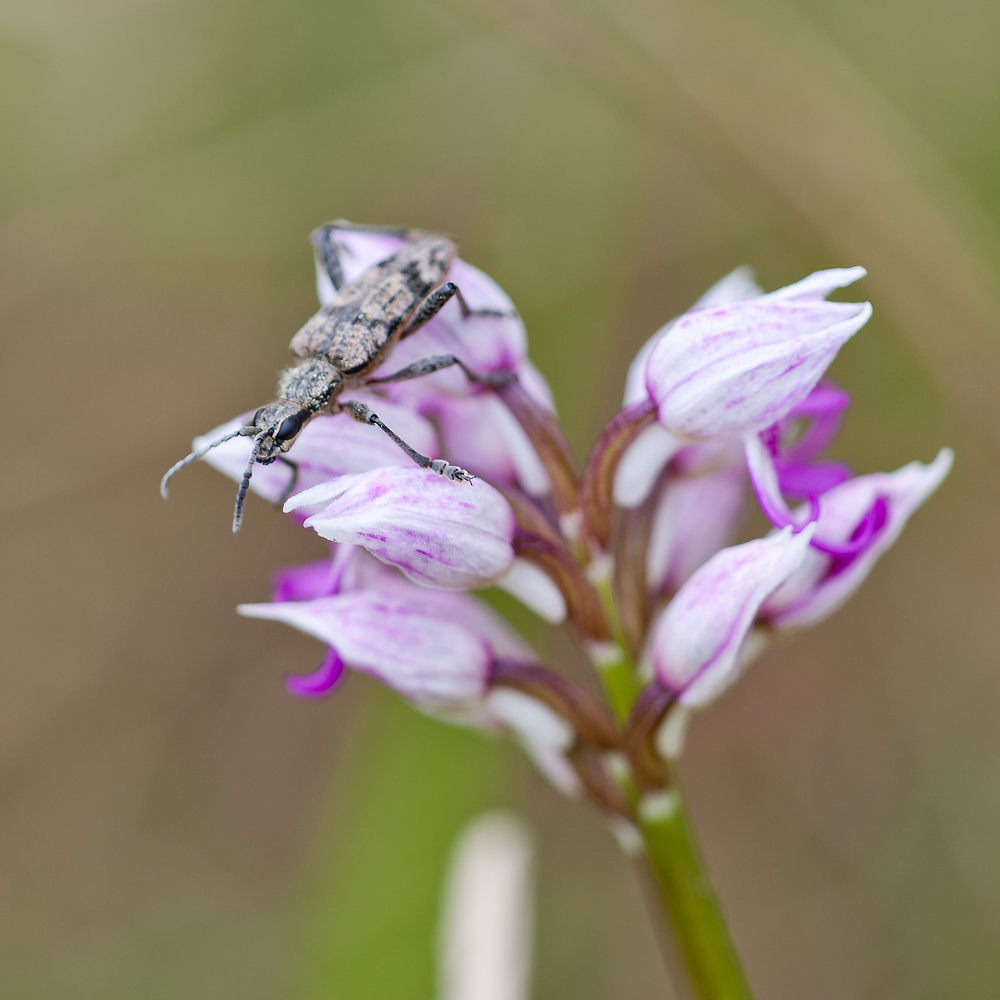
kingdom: Animalia
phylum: Arthropoda
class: Insecta
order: Coleoptera
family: Cerambycidae
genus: Rhagium
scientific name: Rhagium inquisitor
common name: Ribbed pine borer
